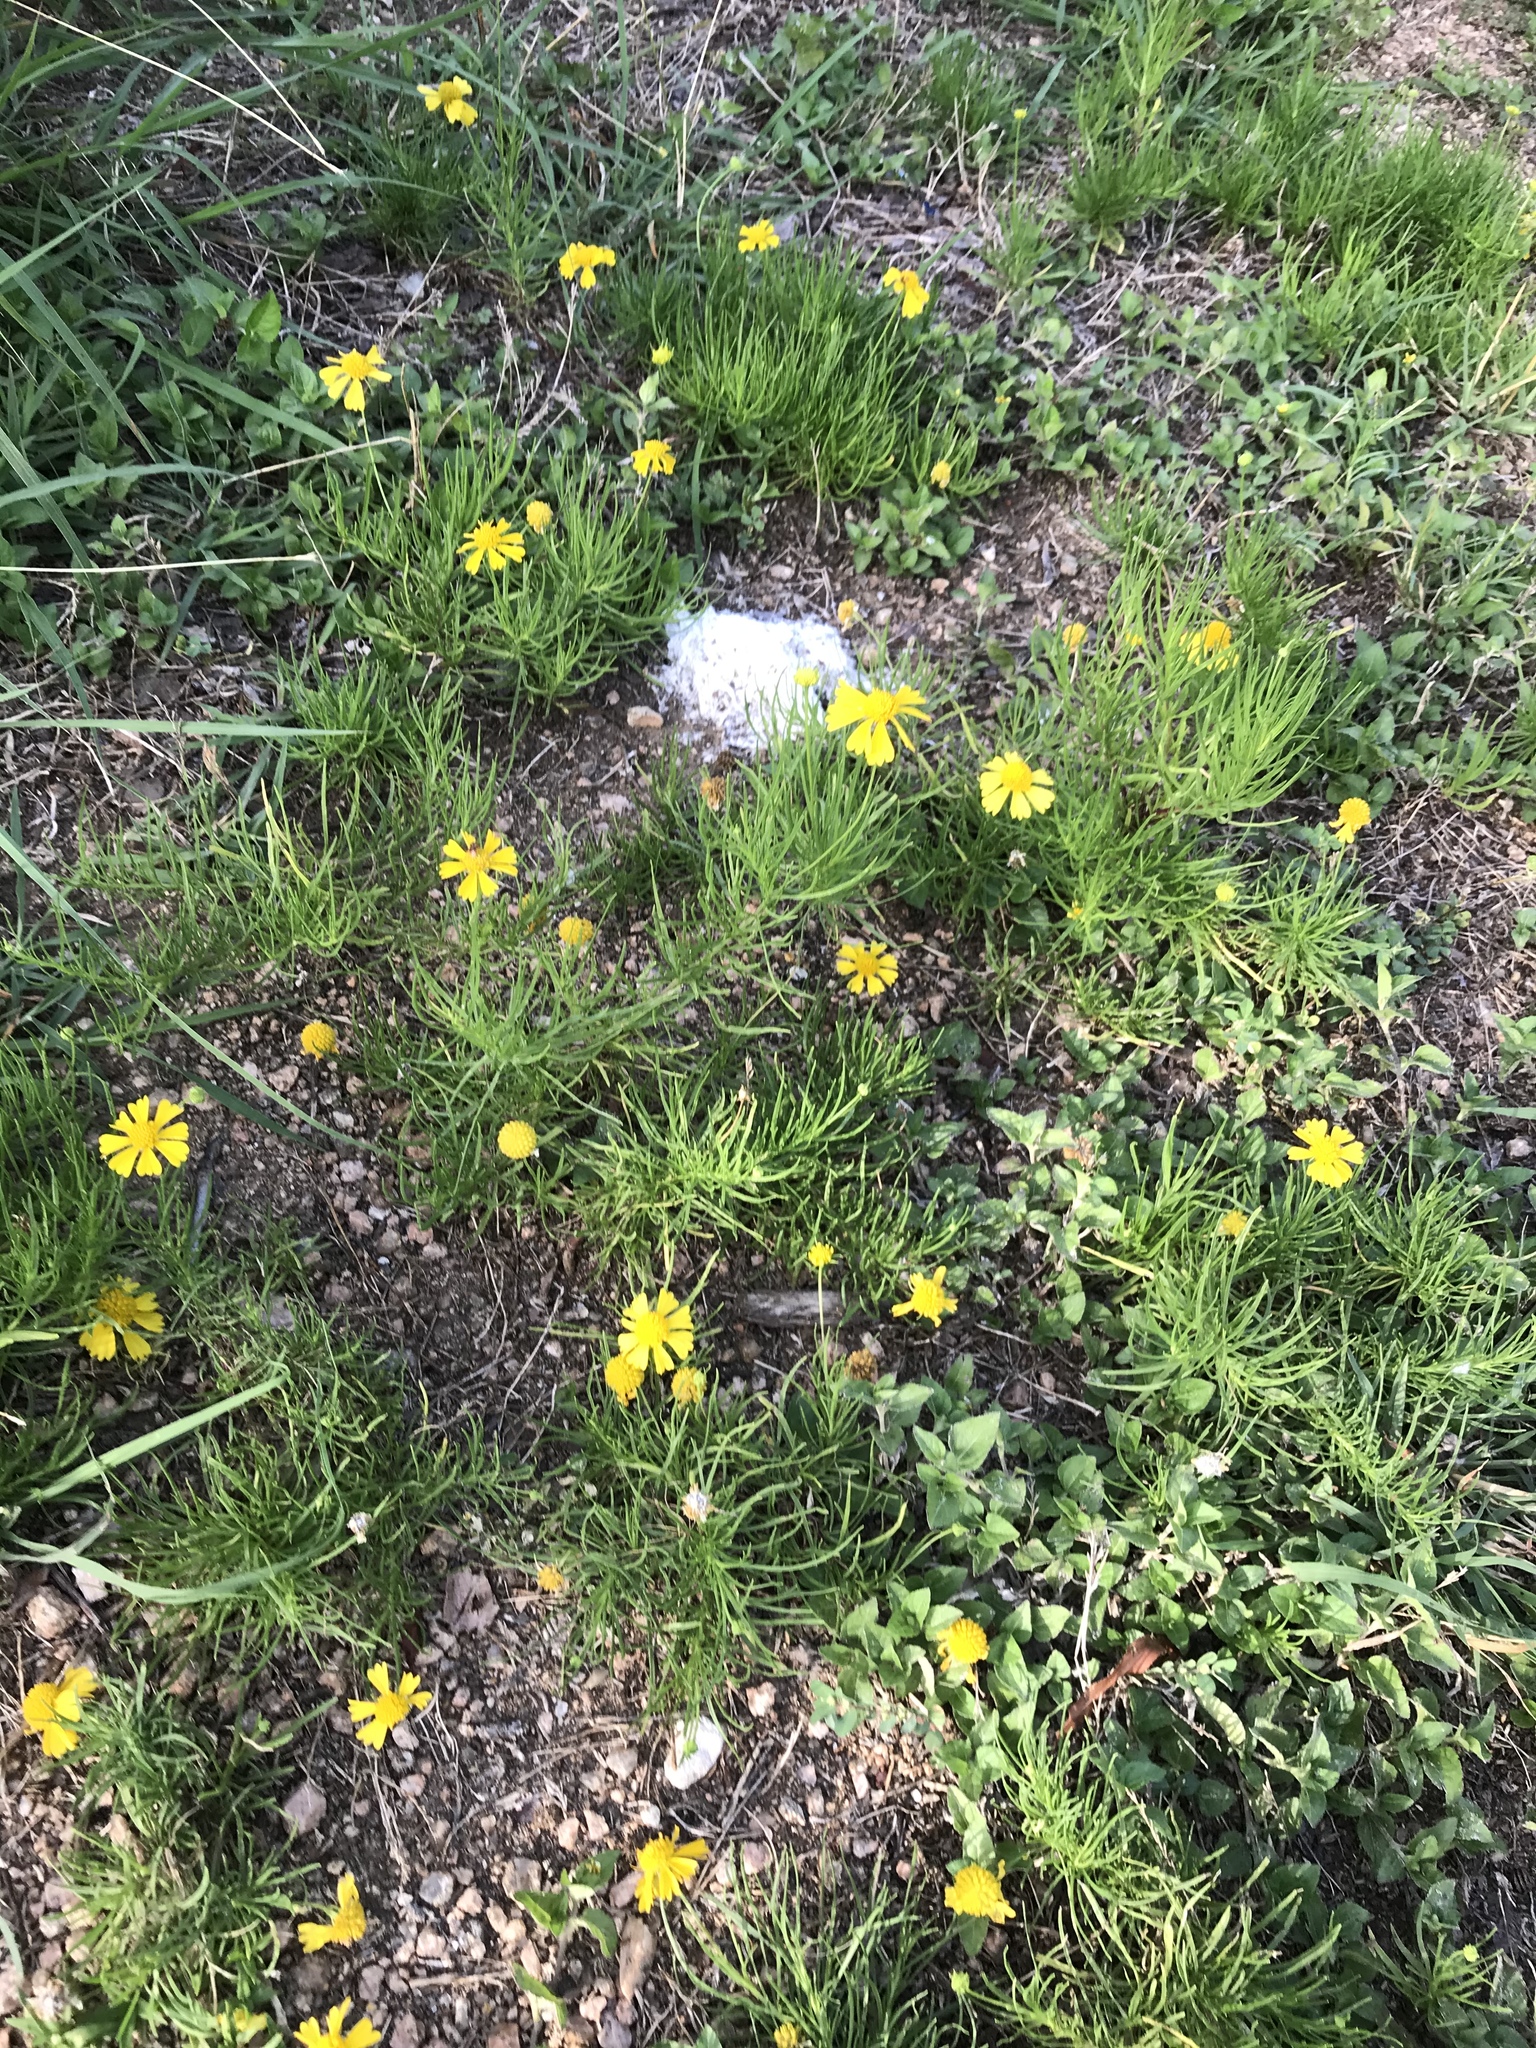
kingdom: Plantae
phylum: Tracheophyta
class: Magnoliopsida
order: Asterales
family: Asteraceae
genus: Helenium
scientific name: Helenium amarum
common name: Bitter sneezeweed
